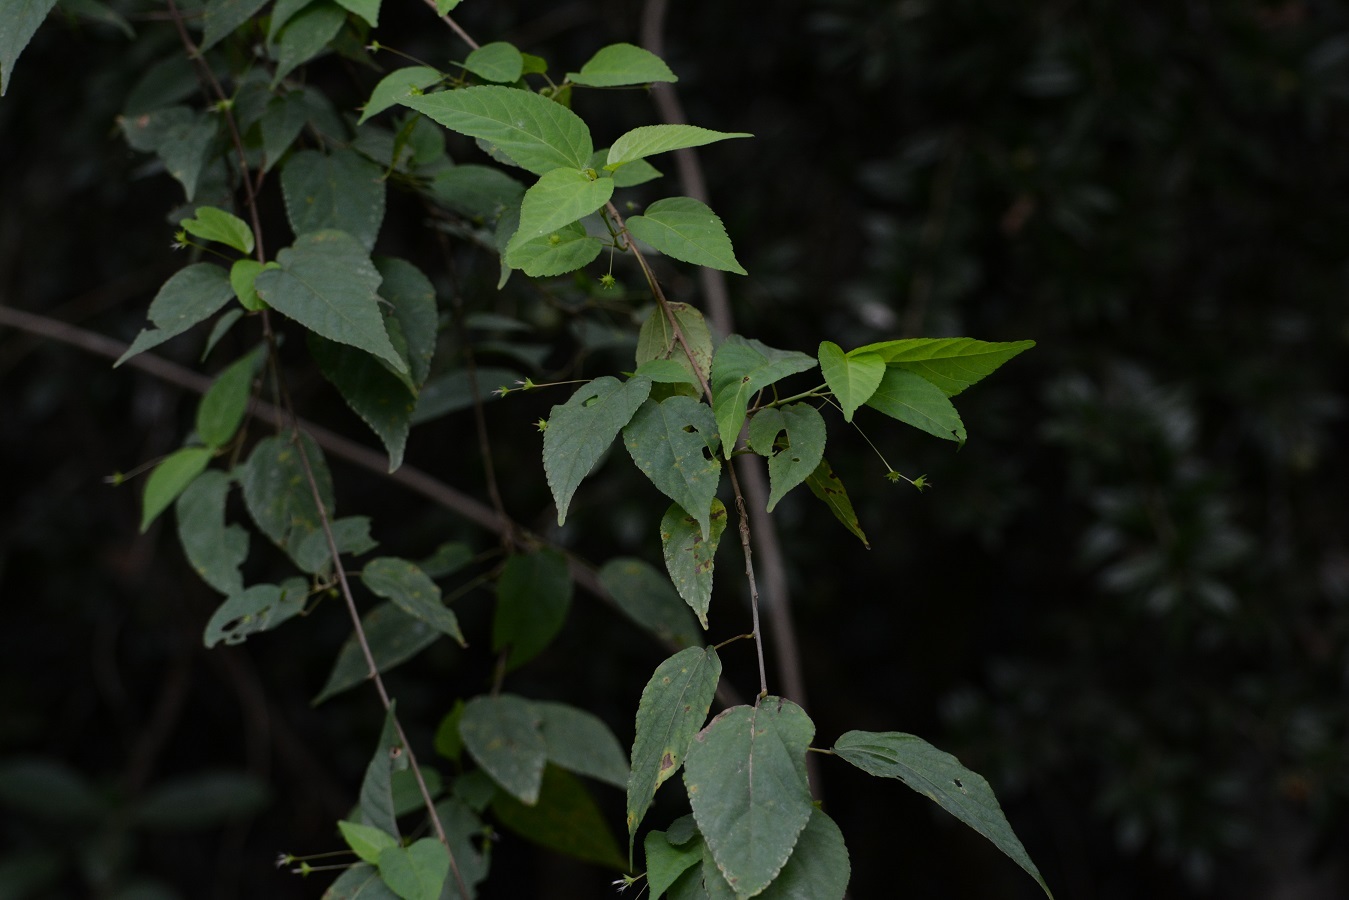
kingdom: Plantae
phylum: Tracheophyta
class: Magnoliopsida
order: Malpighiales
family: Euphorbiaceae
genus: Acalypha
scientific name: Acalypha chiapensis
